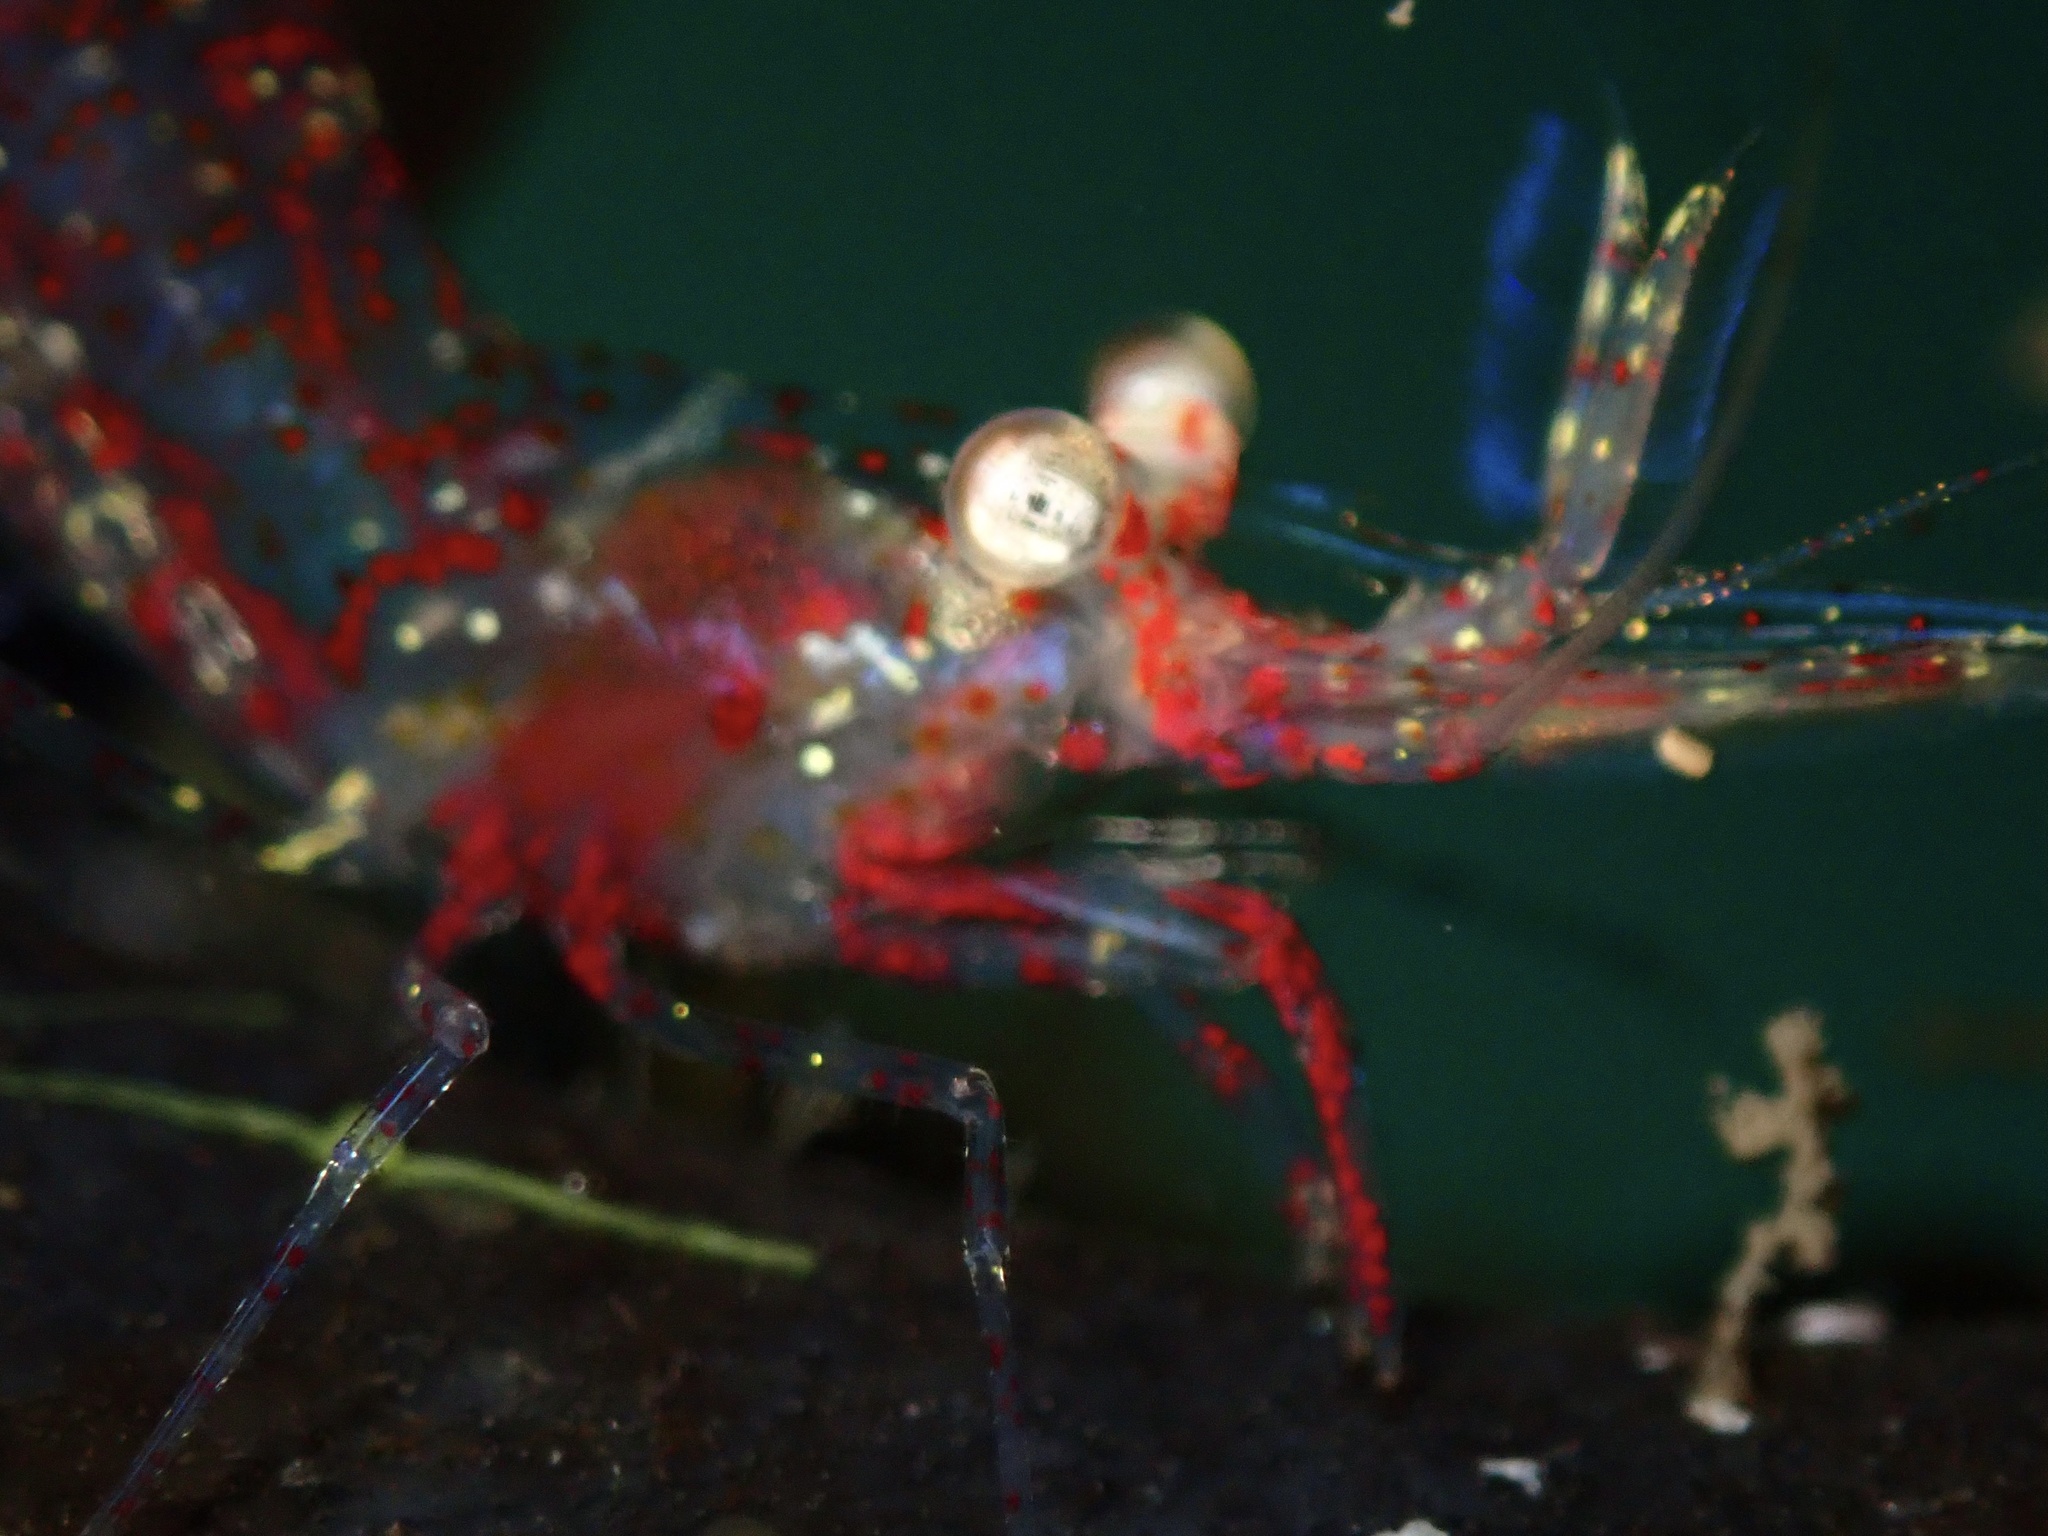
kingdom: Animalia
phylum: Arthropoda
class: Malacostraca
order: Decapoda
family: Thoridae
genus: Heptacarpus
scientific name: Heptacarpus tridens
